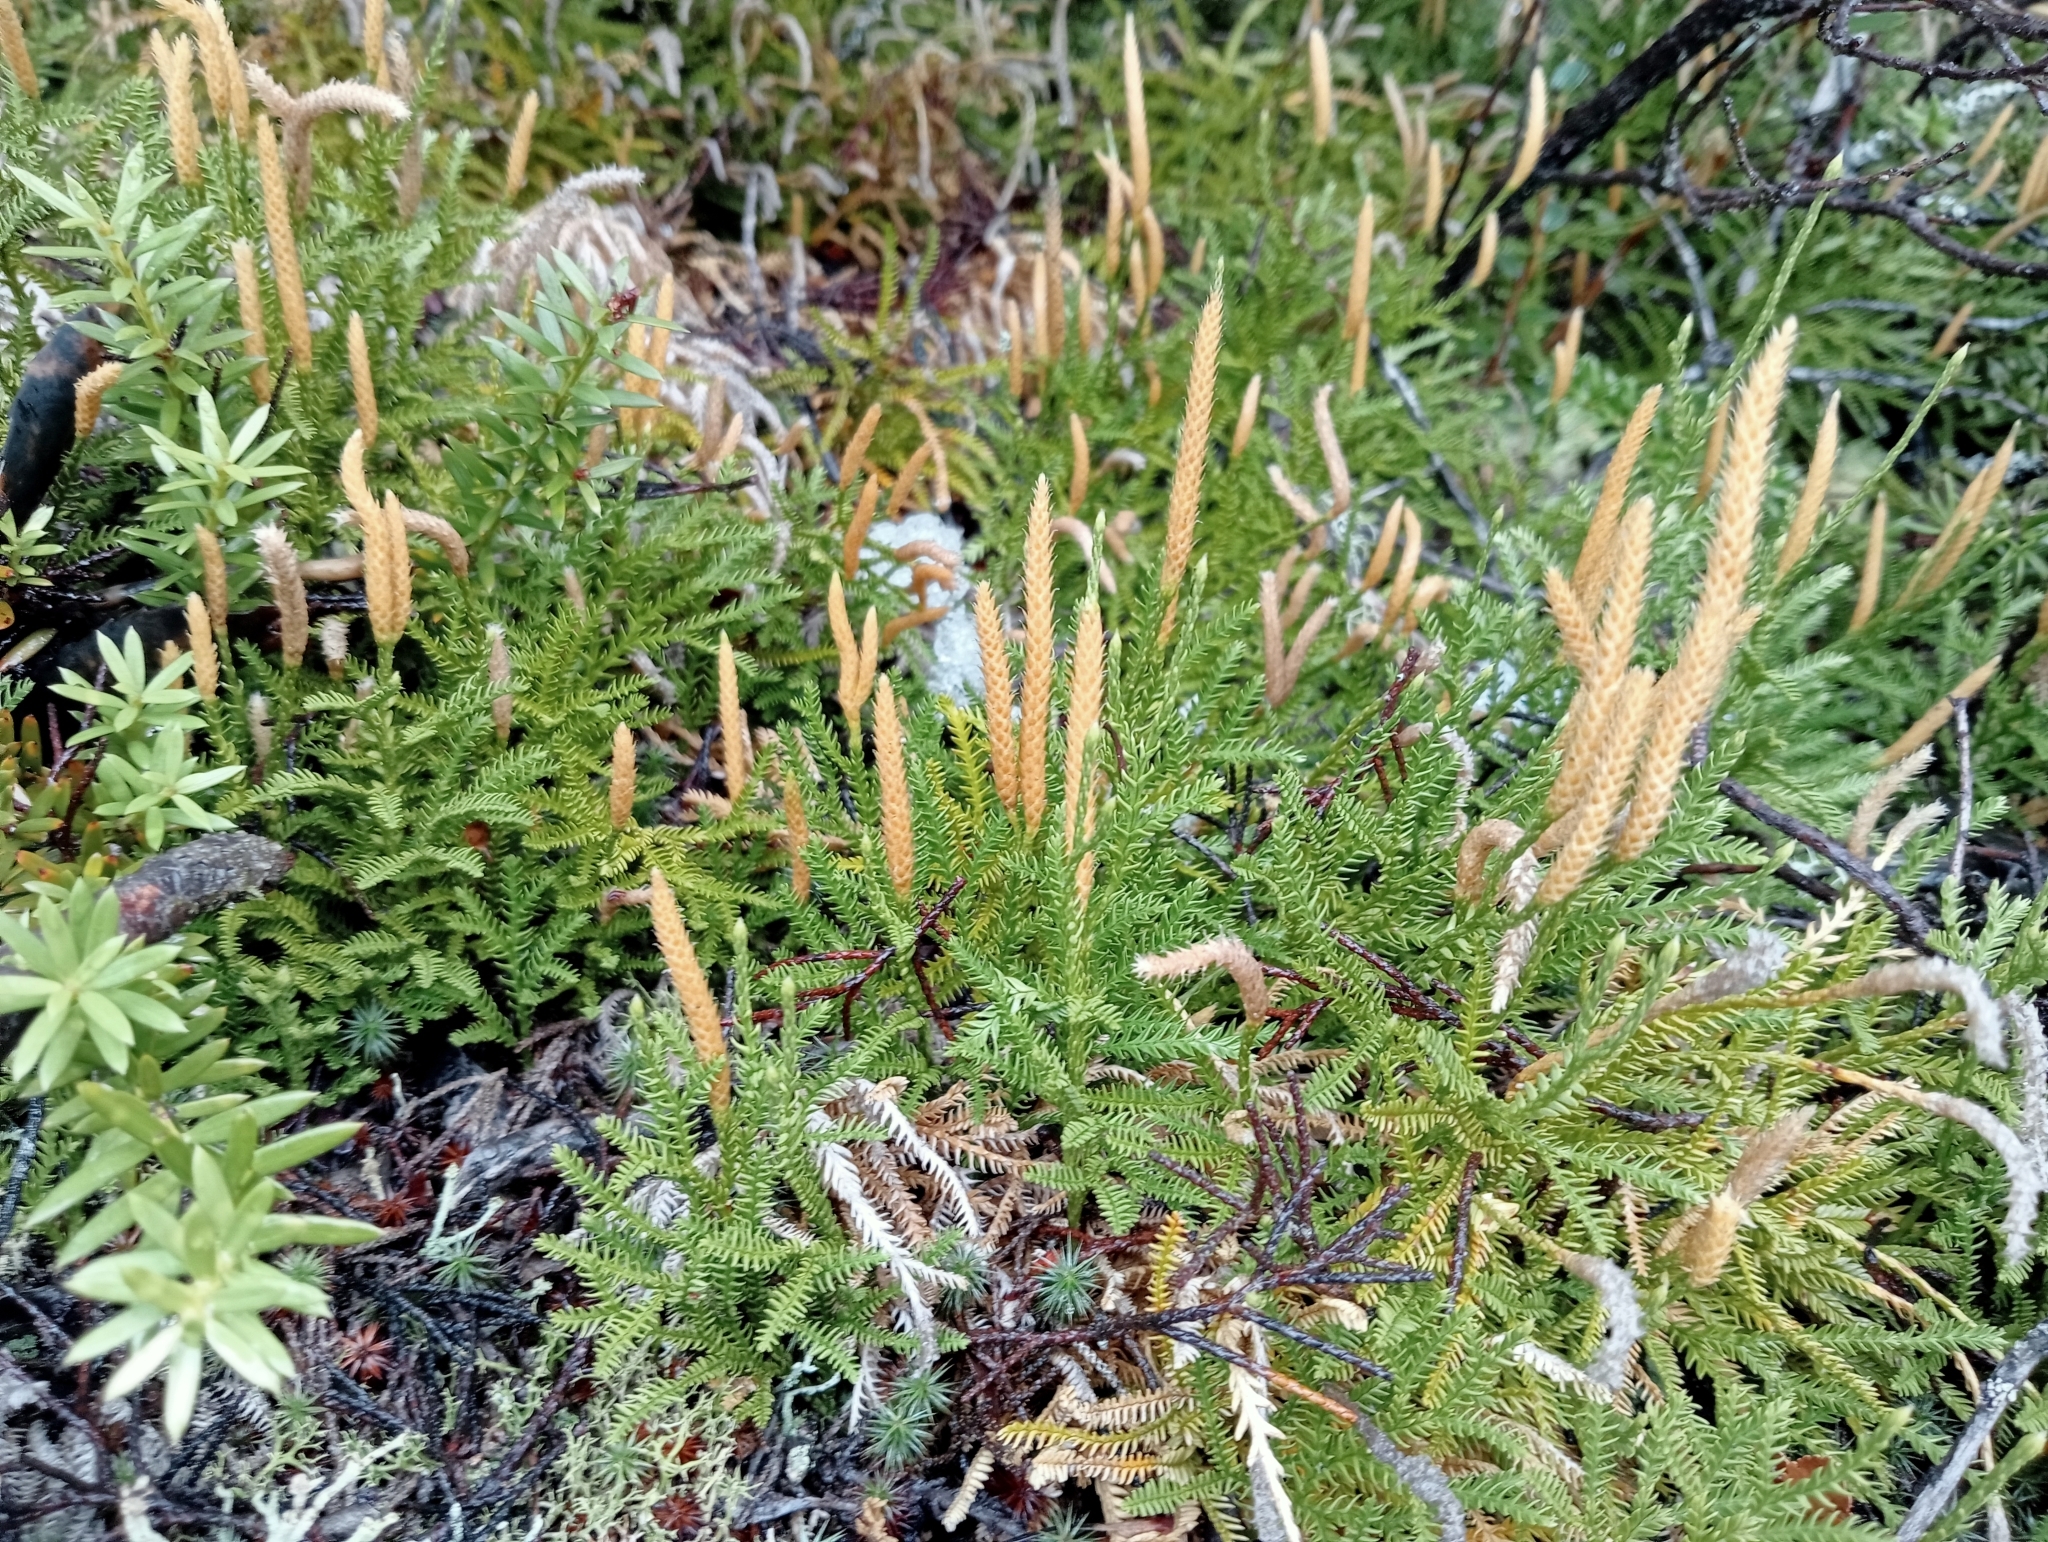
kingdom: Plantae
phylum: Tracheophyta
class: Lycopodiopsida
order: Lycopodiales
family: Lycopodiaceae
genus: Diphasium
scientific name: Diphasium scariosum
